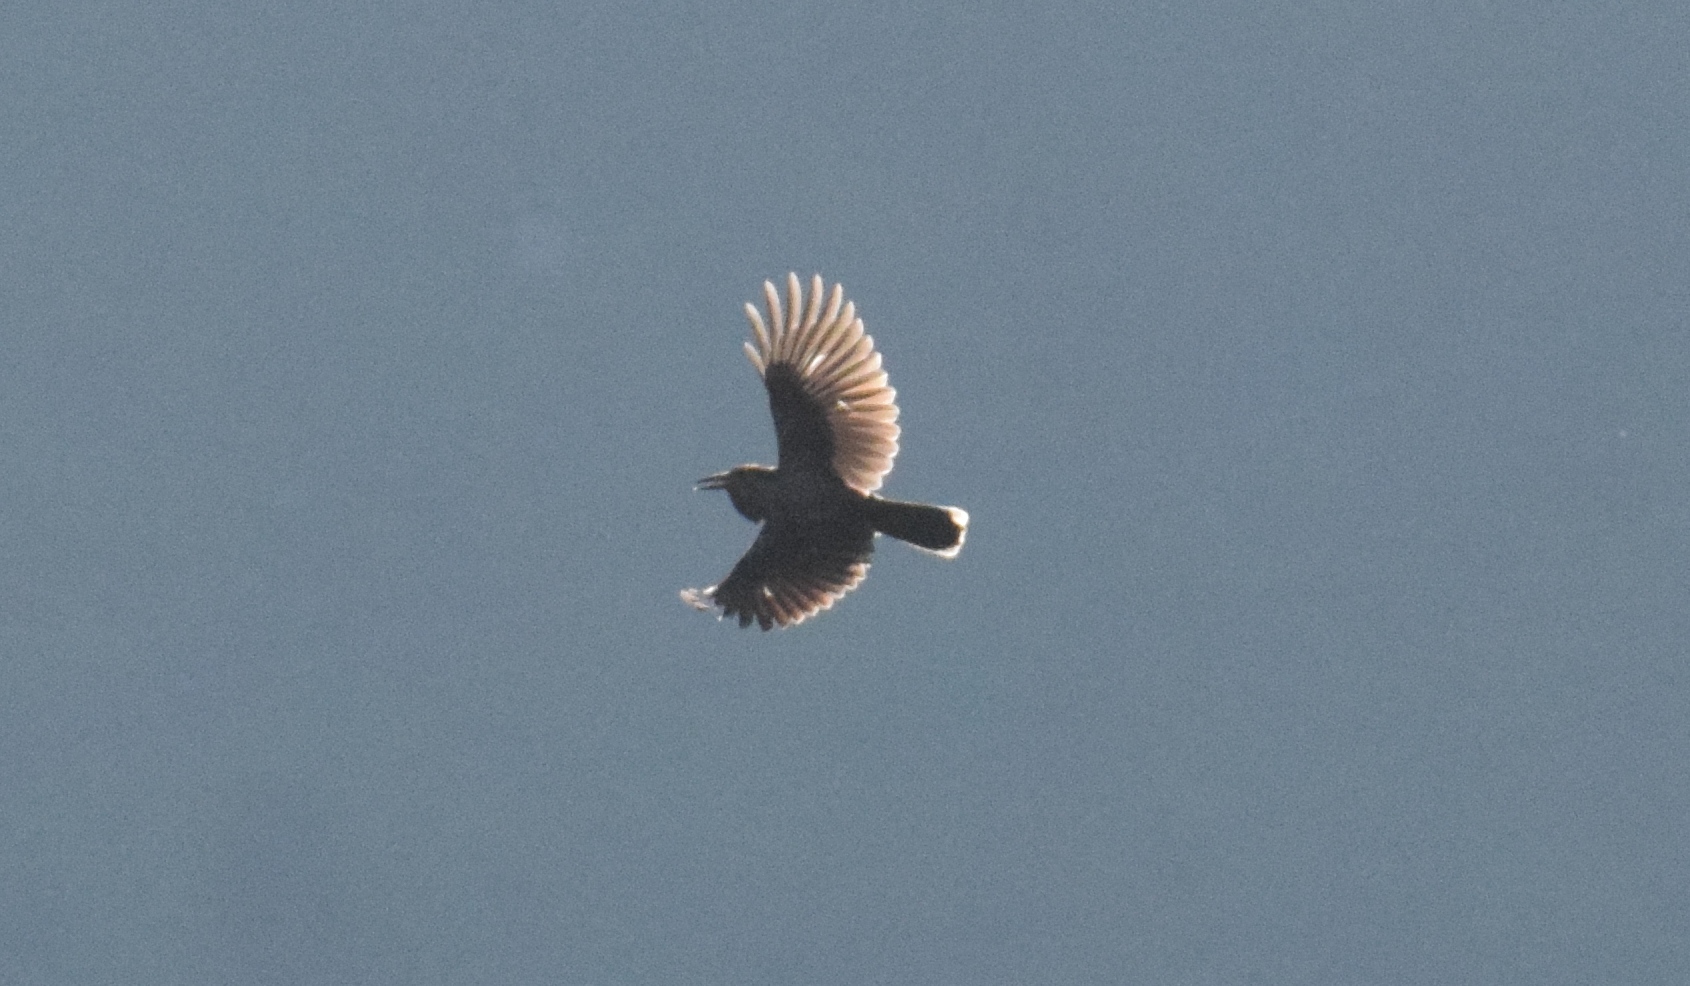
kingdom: Animalia
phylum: Chordata
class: Aves
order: Passeriformes
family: Corvidae
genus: Nucifraga
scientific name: Nucifraga caryocatactes
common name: Spotted nutcracker
